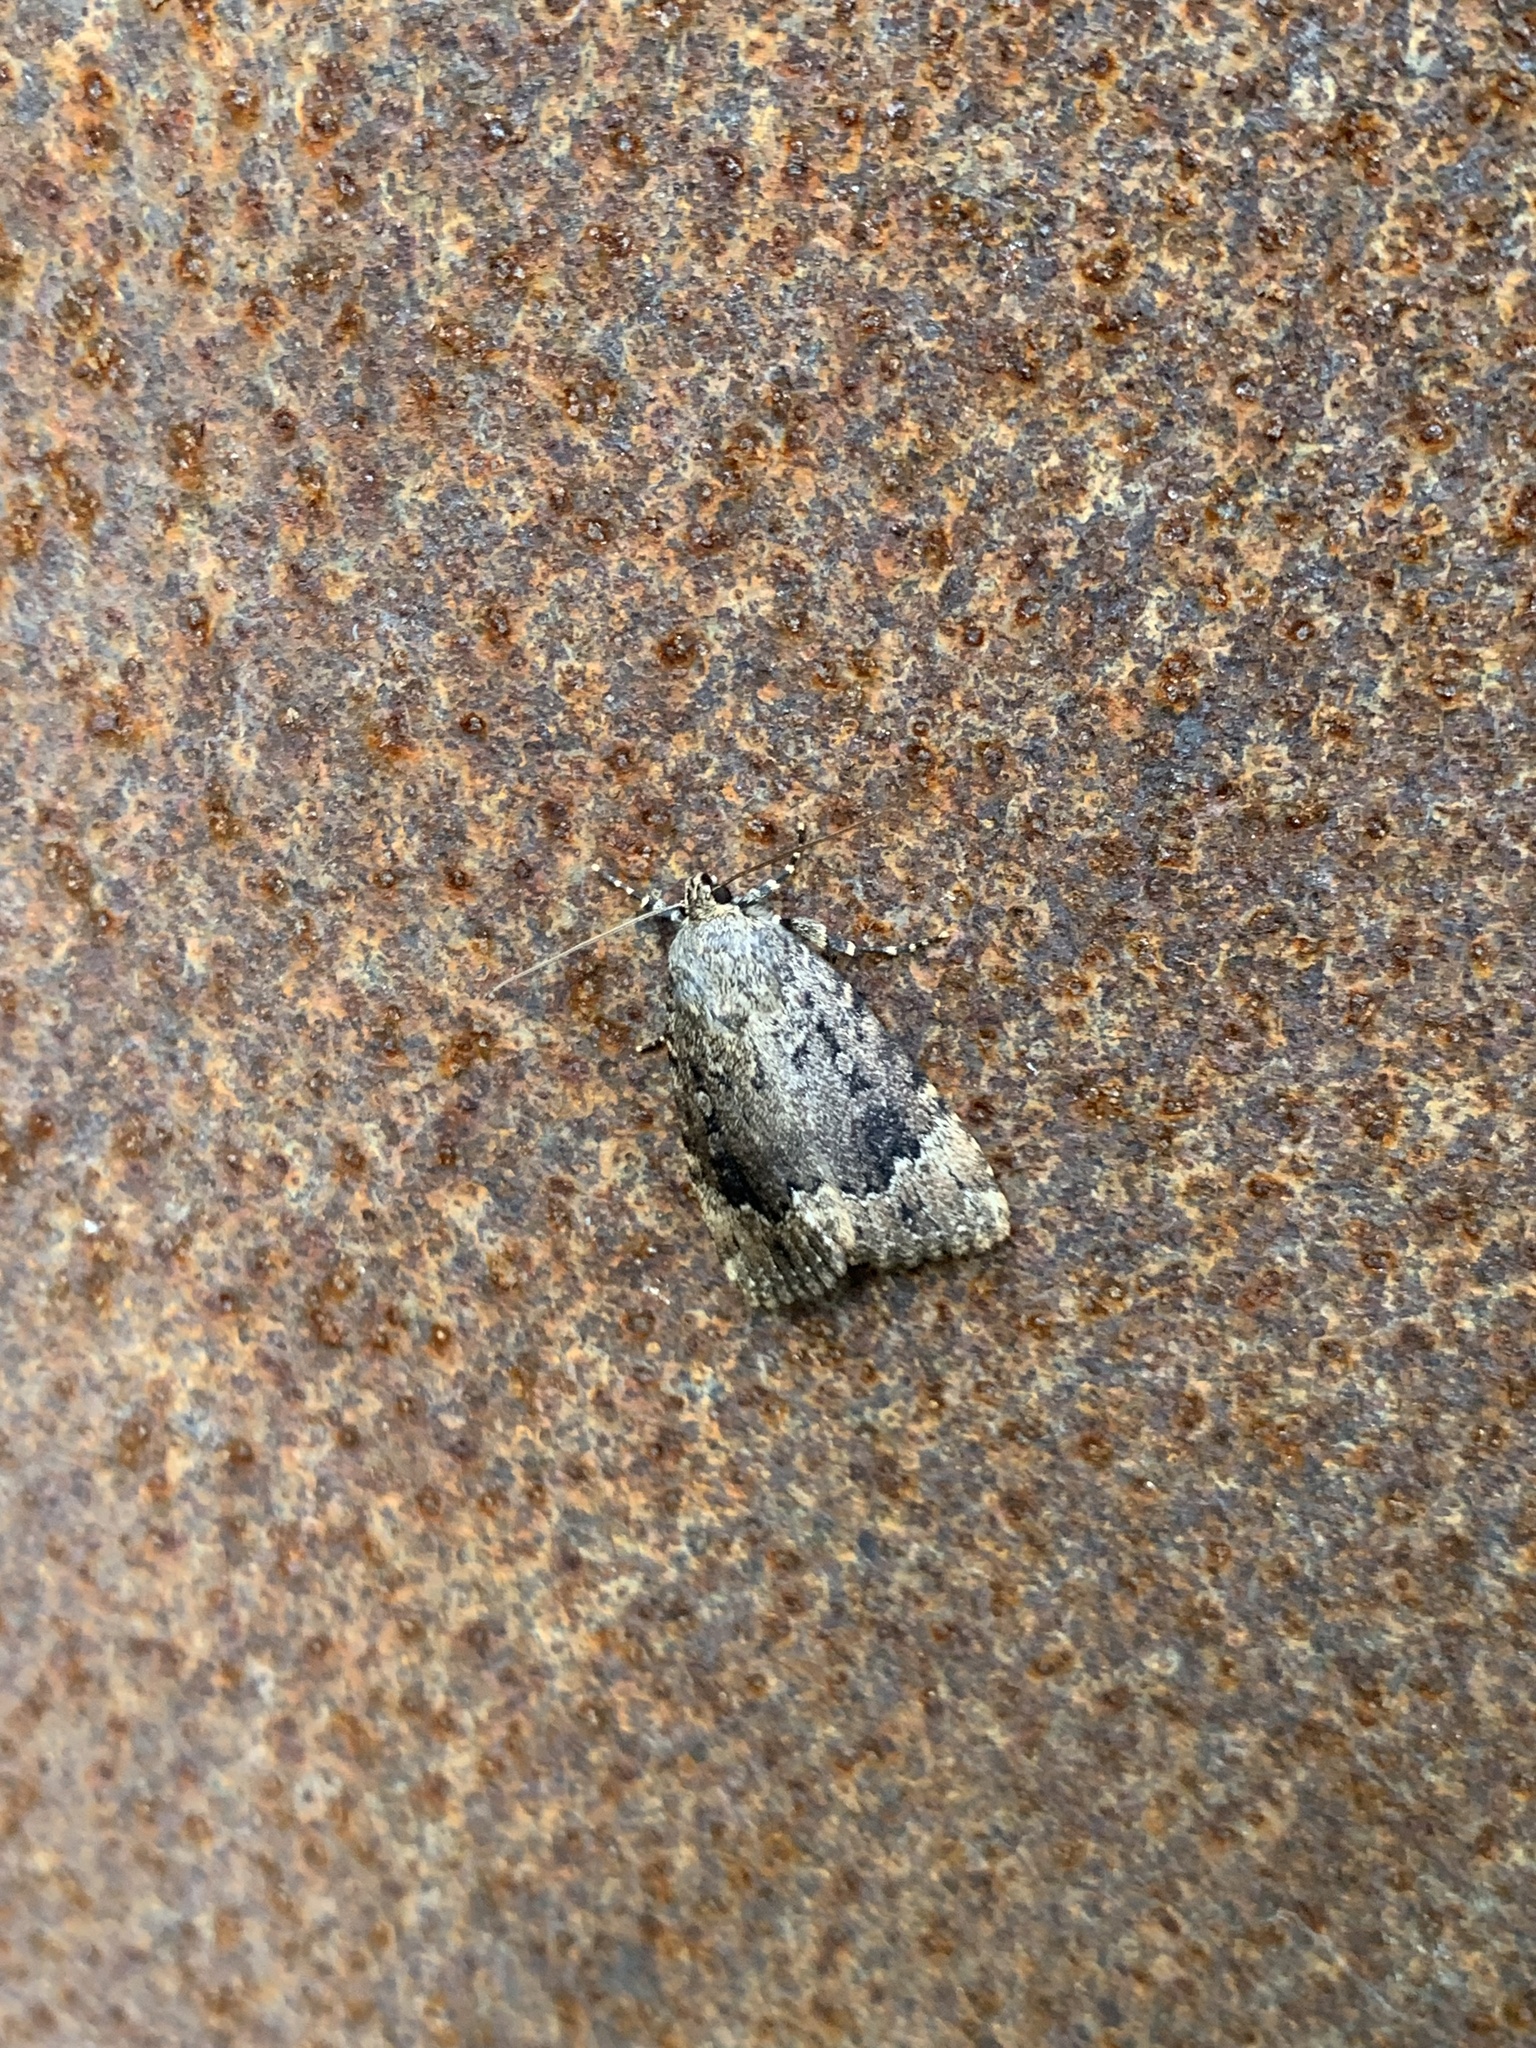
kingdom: Animalia
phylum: Arthropoda
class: Insecta
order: Lepidoptera
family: Noctuidae
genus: Amphipyra
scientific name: Amphipyra pyramidoides
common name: American copper underwing
